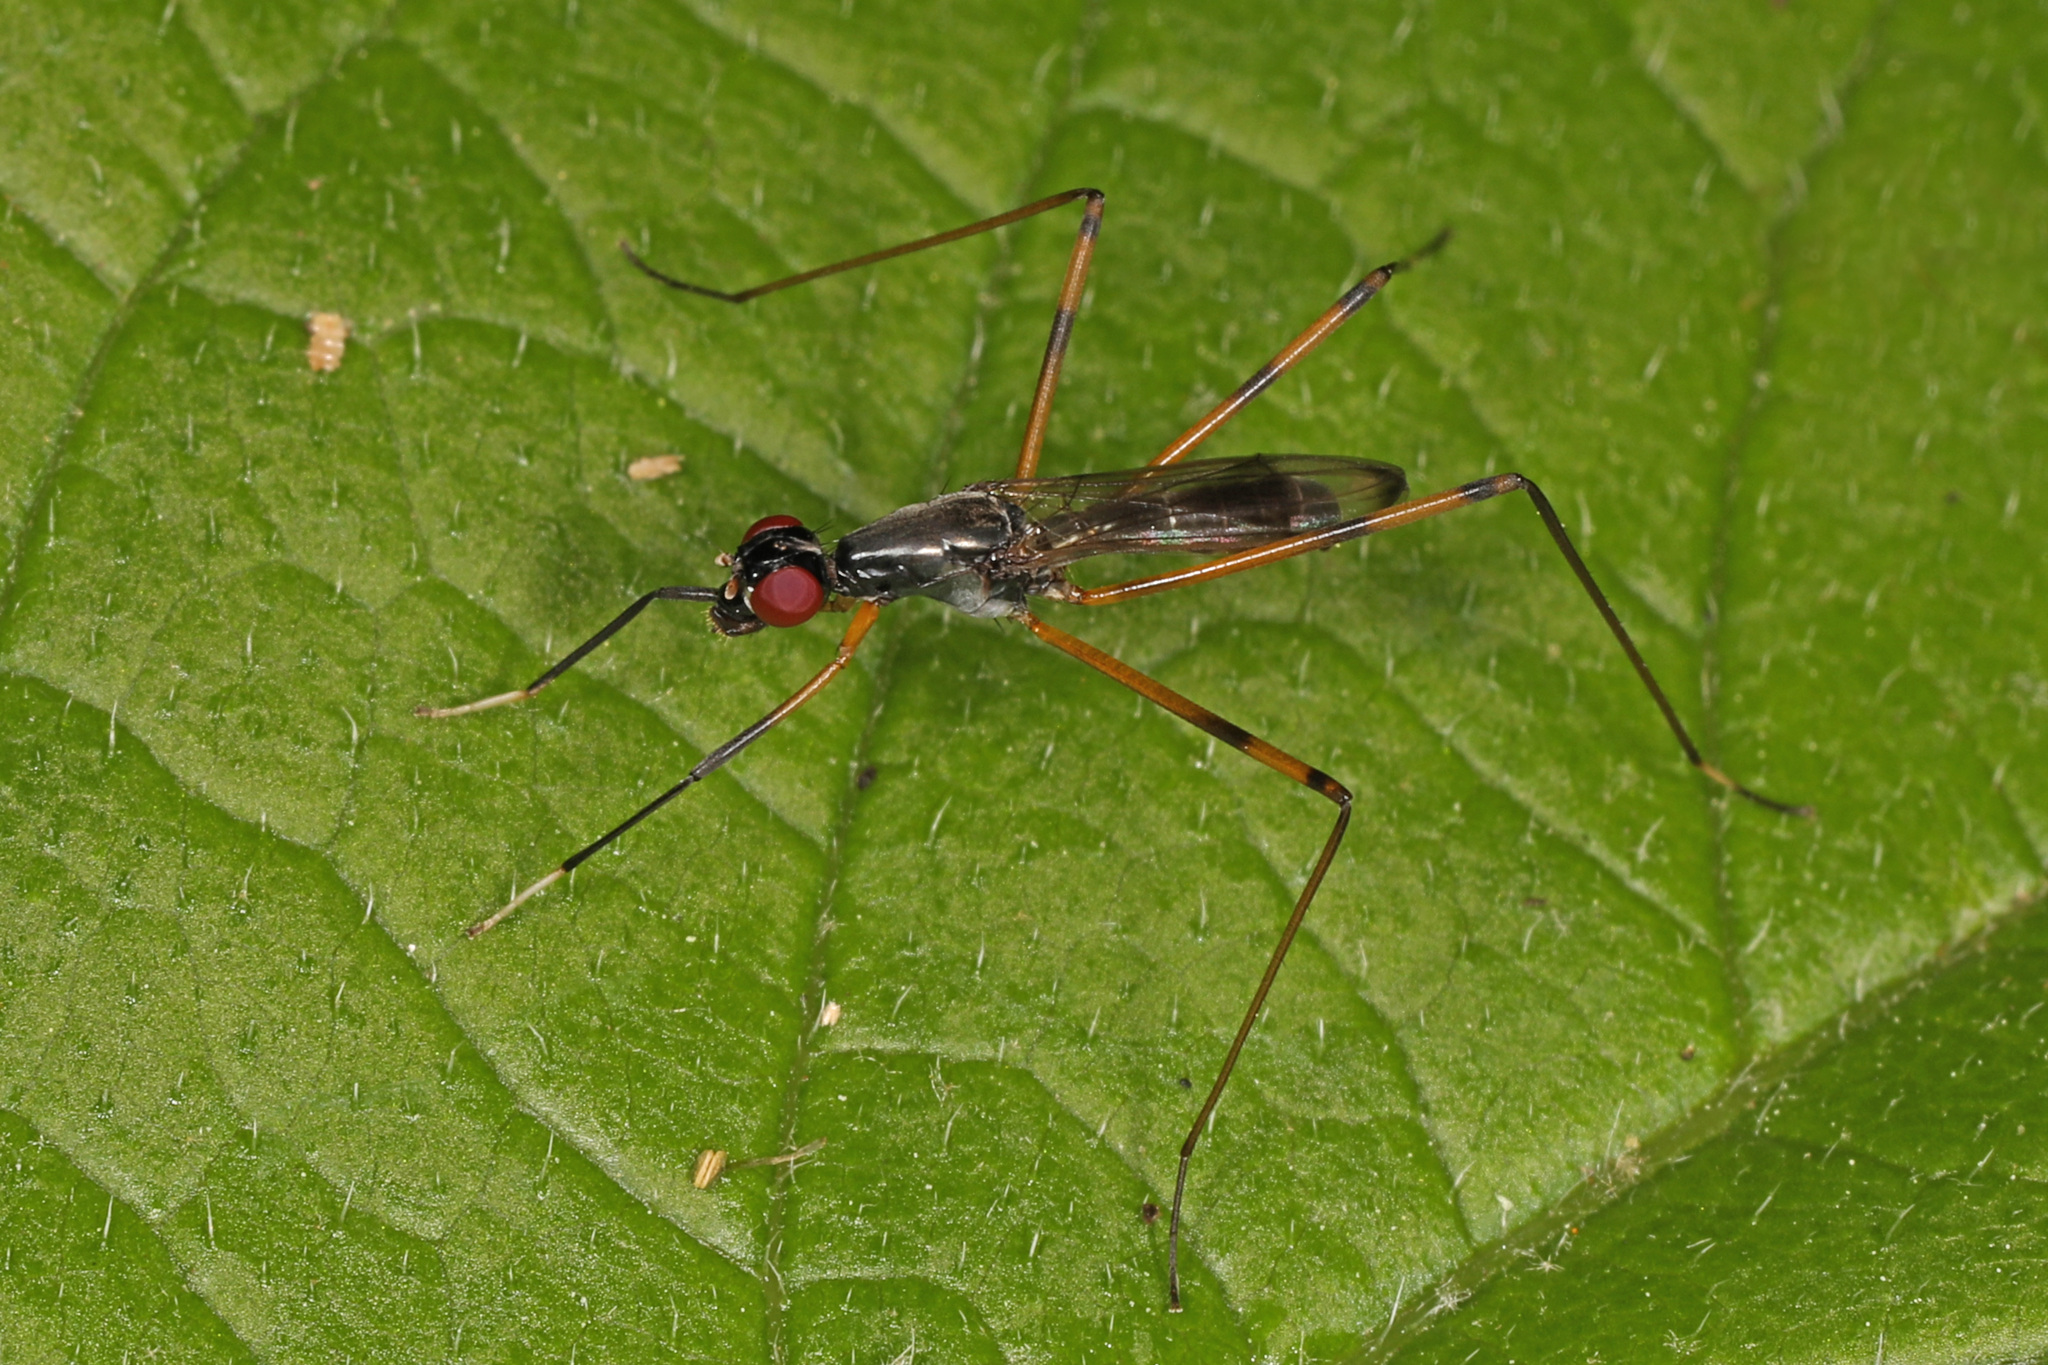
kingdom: Animalia
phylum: Arthropoda
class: Insecta
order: Diptera
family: Micropezidae
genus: Rainieria
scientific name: Rainieria antennaepes
